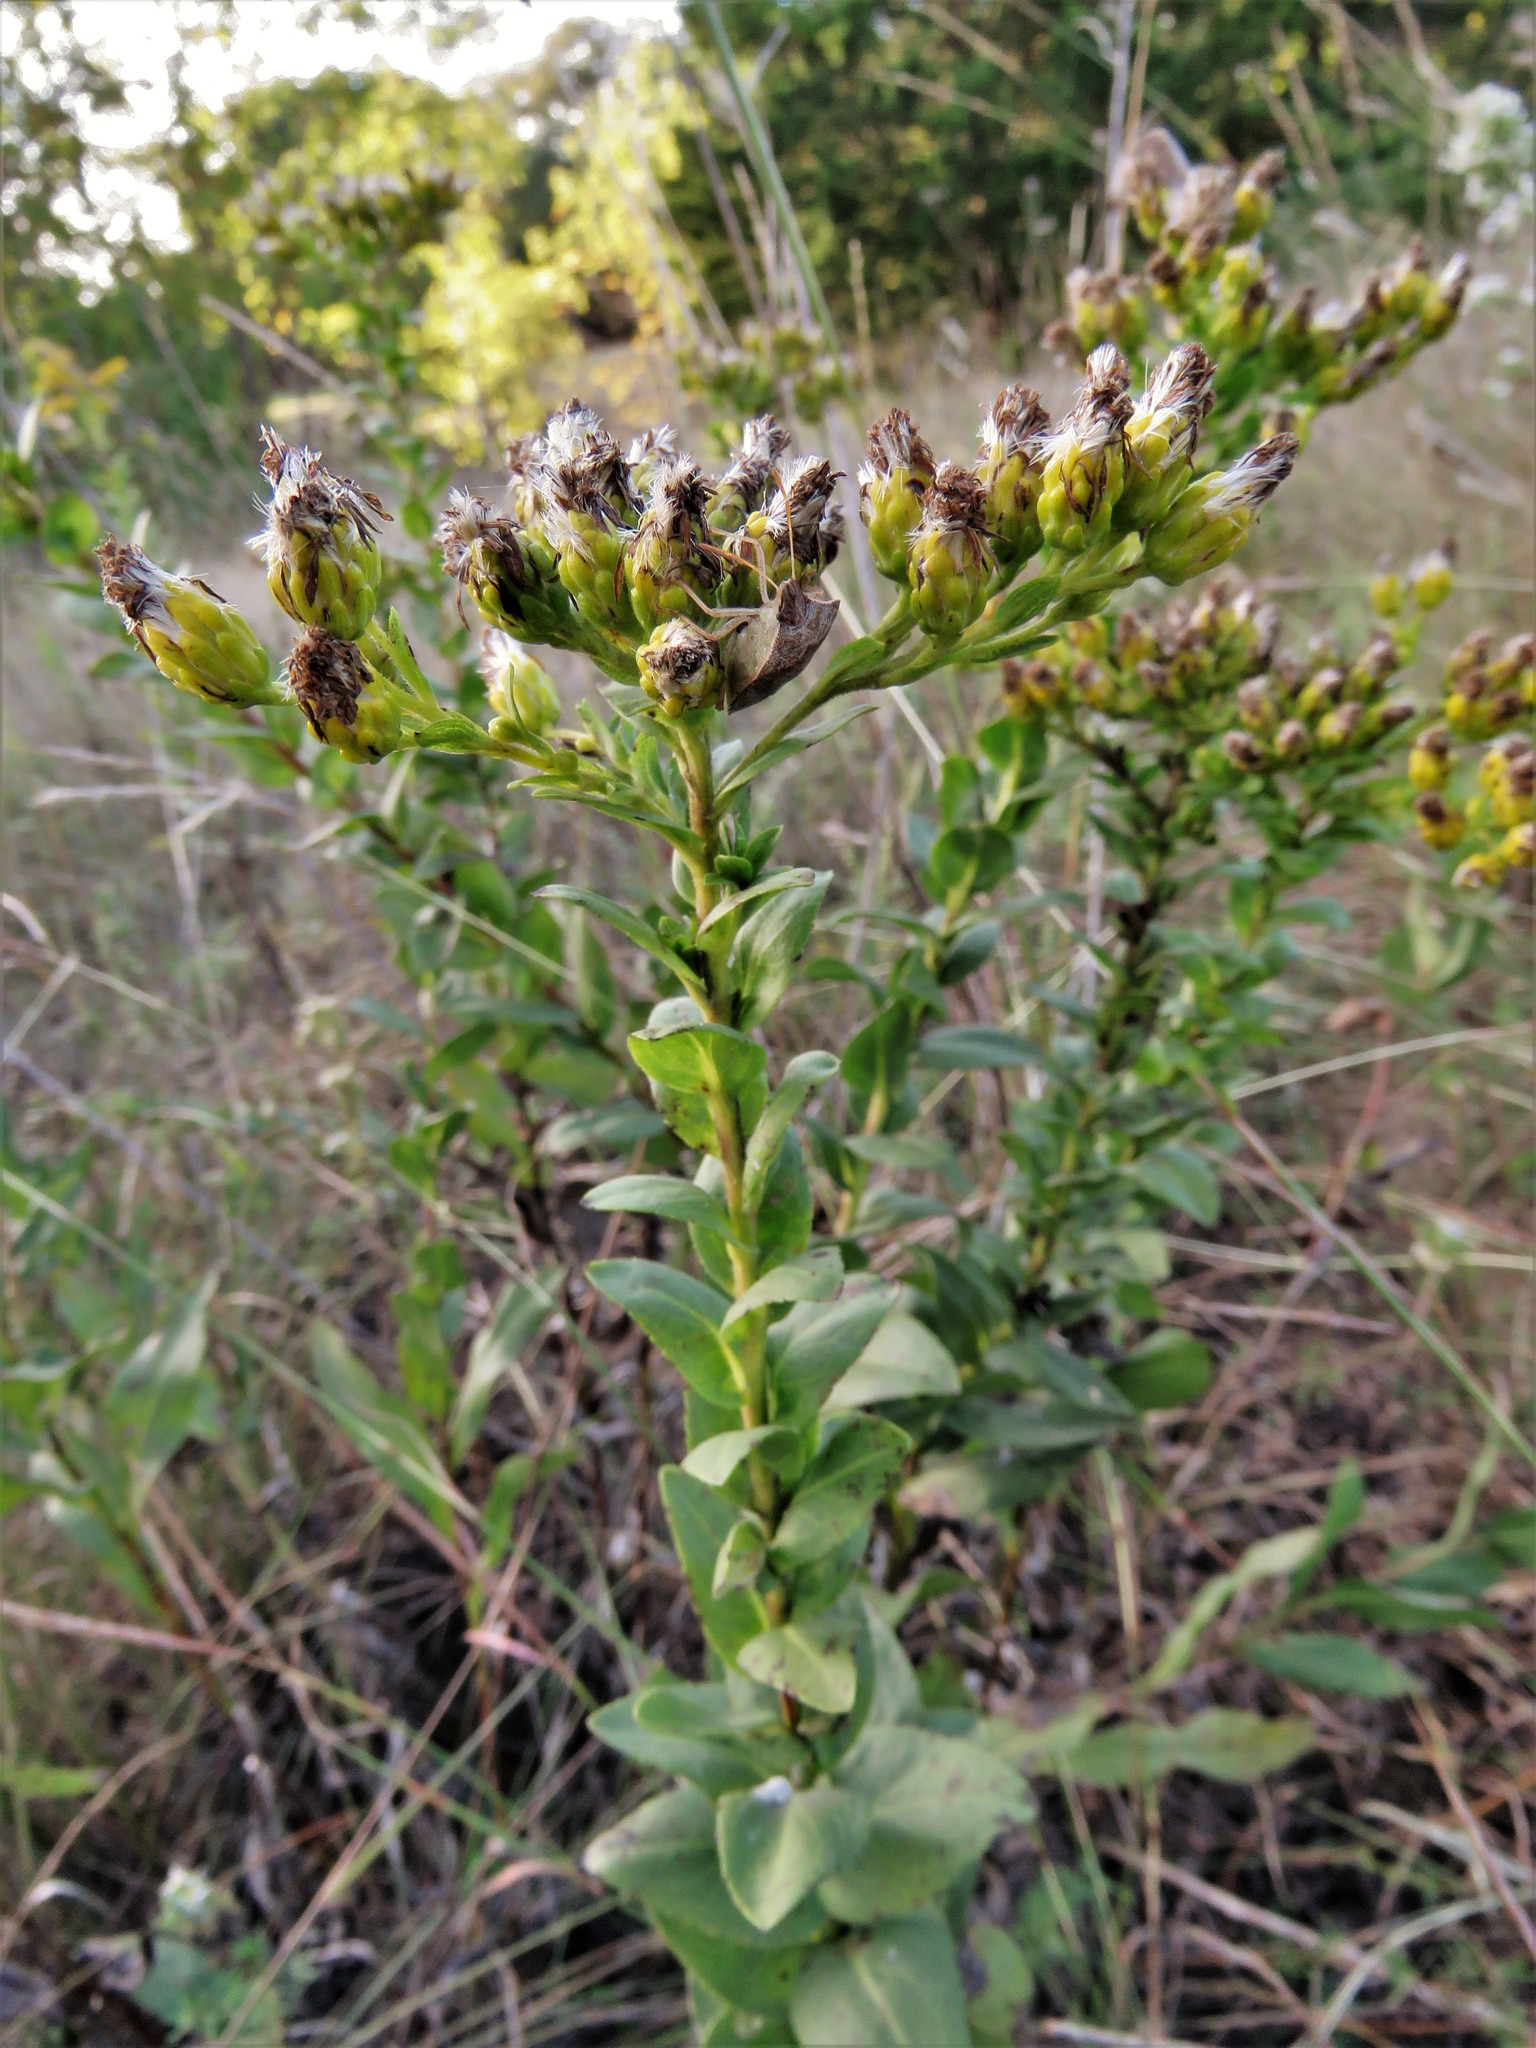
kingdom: Plantae
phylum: Tracheophyta
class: Magnoliopsida
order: Asterales
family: Asteraceae
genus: Solidago
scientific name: Solidago rigida
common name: Rigid goldenrod
